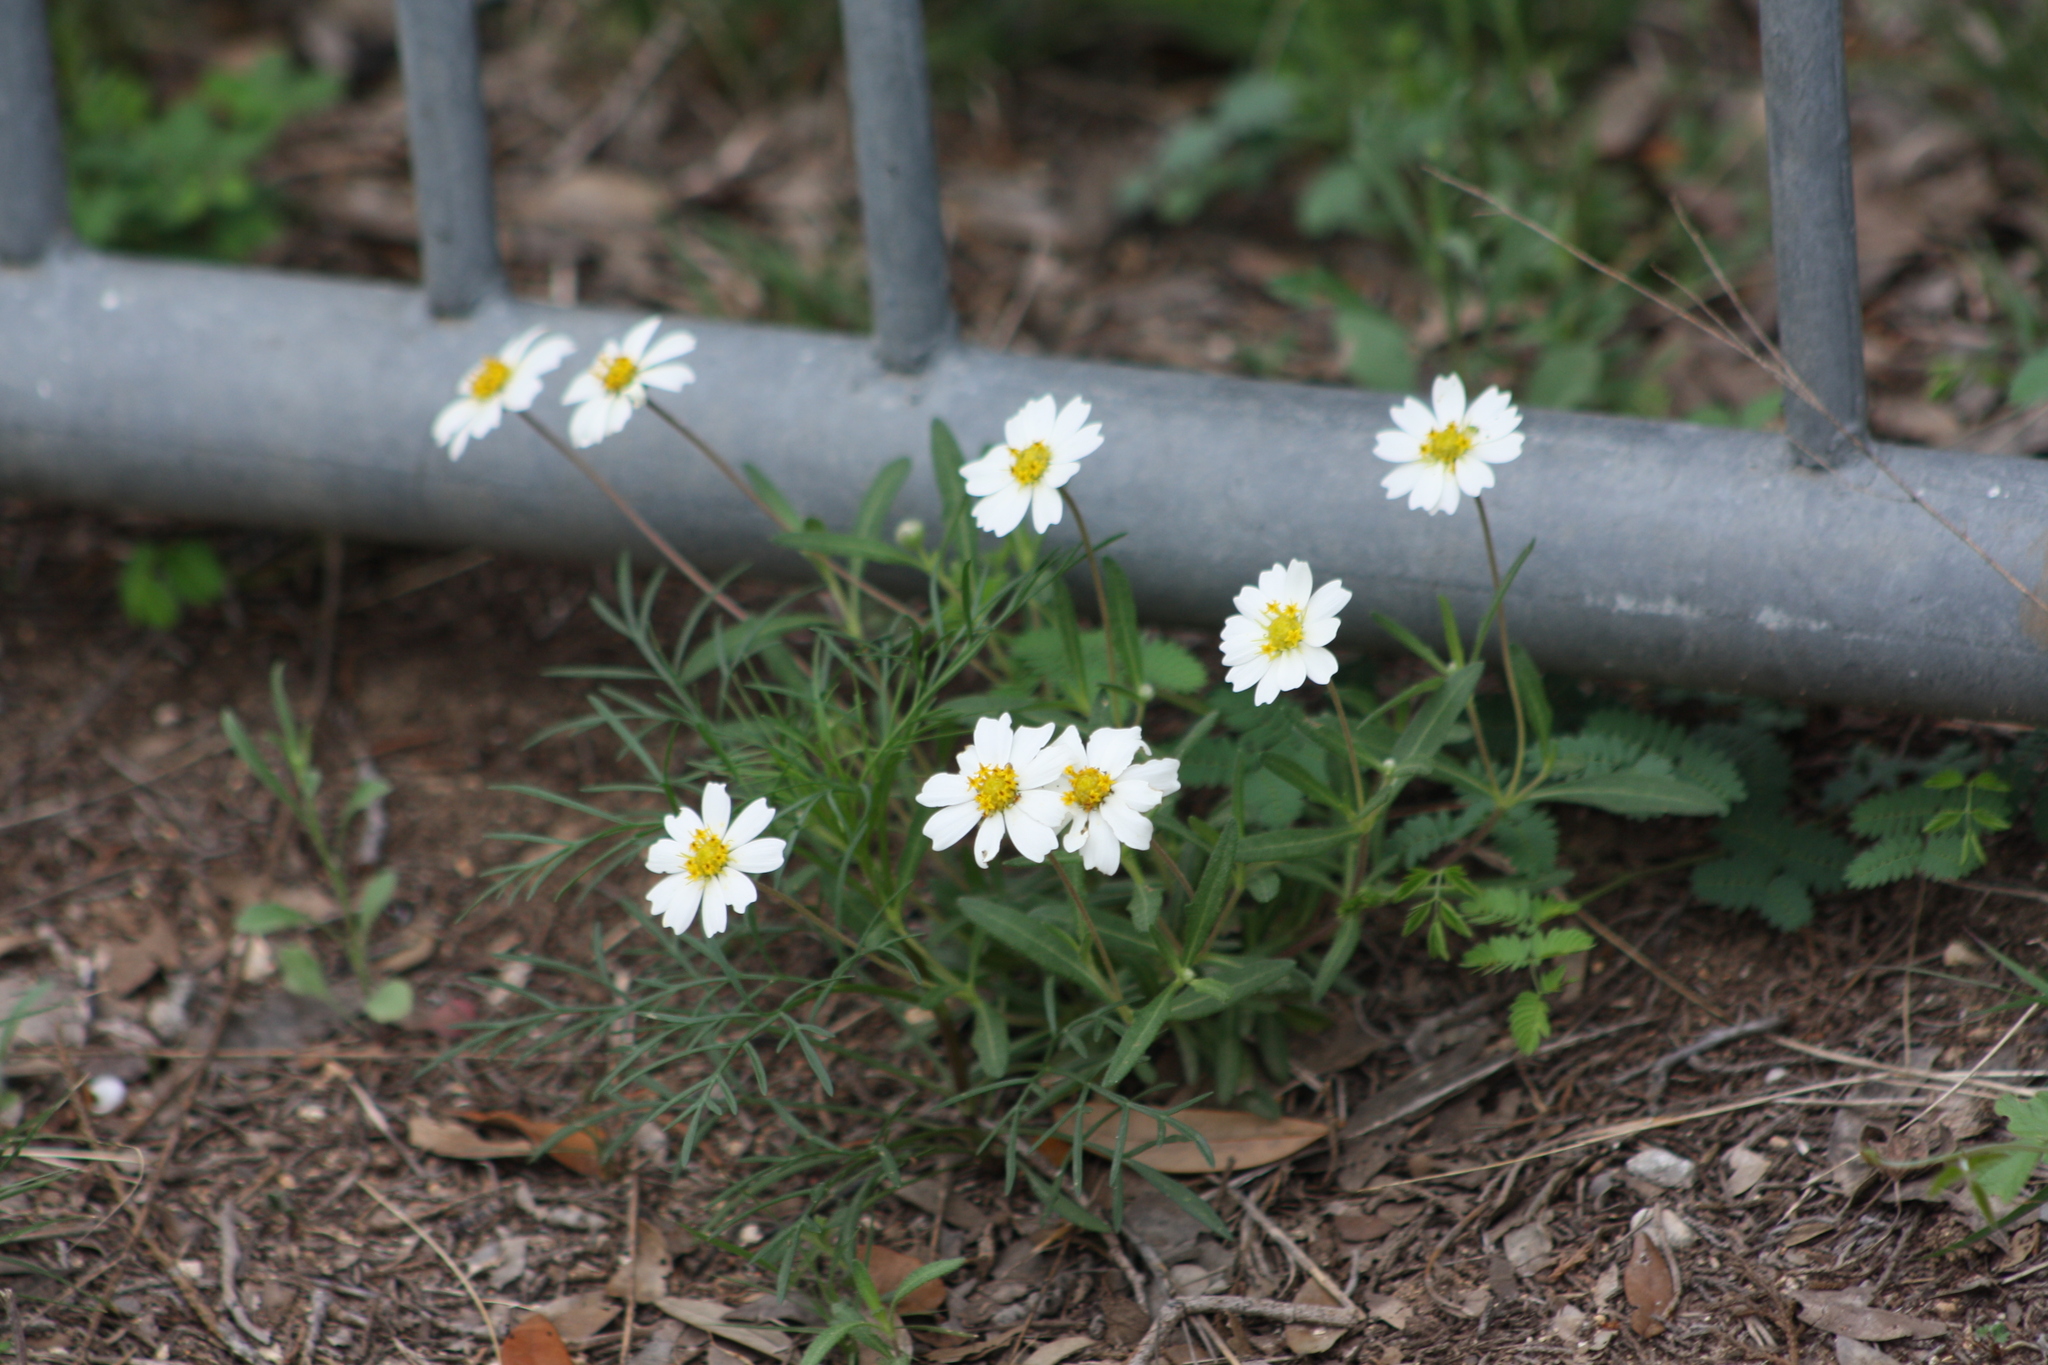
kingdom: Plantae
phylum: Tracheophyta
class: Magnoliopsida
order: Asterales
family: Asteraceae
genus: Melampodium
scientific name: Melampodium leucanthum
